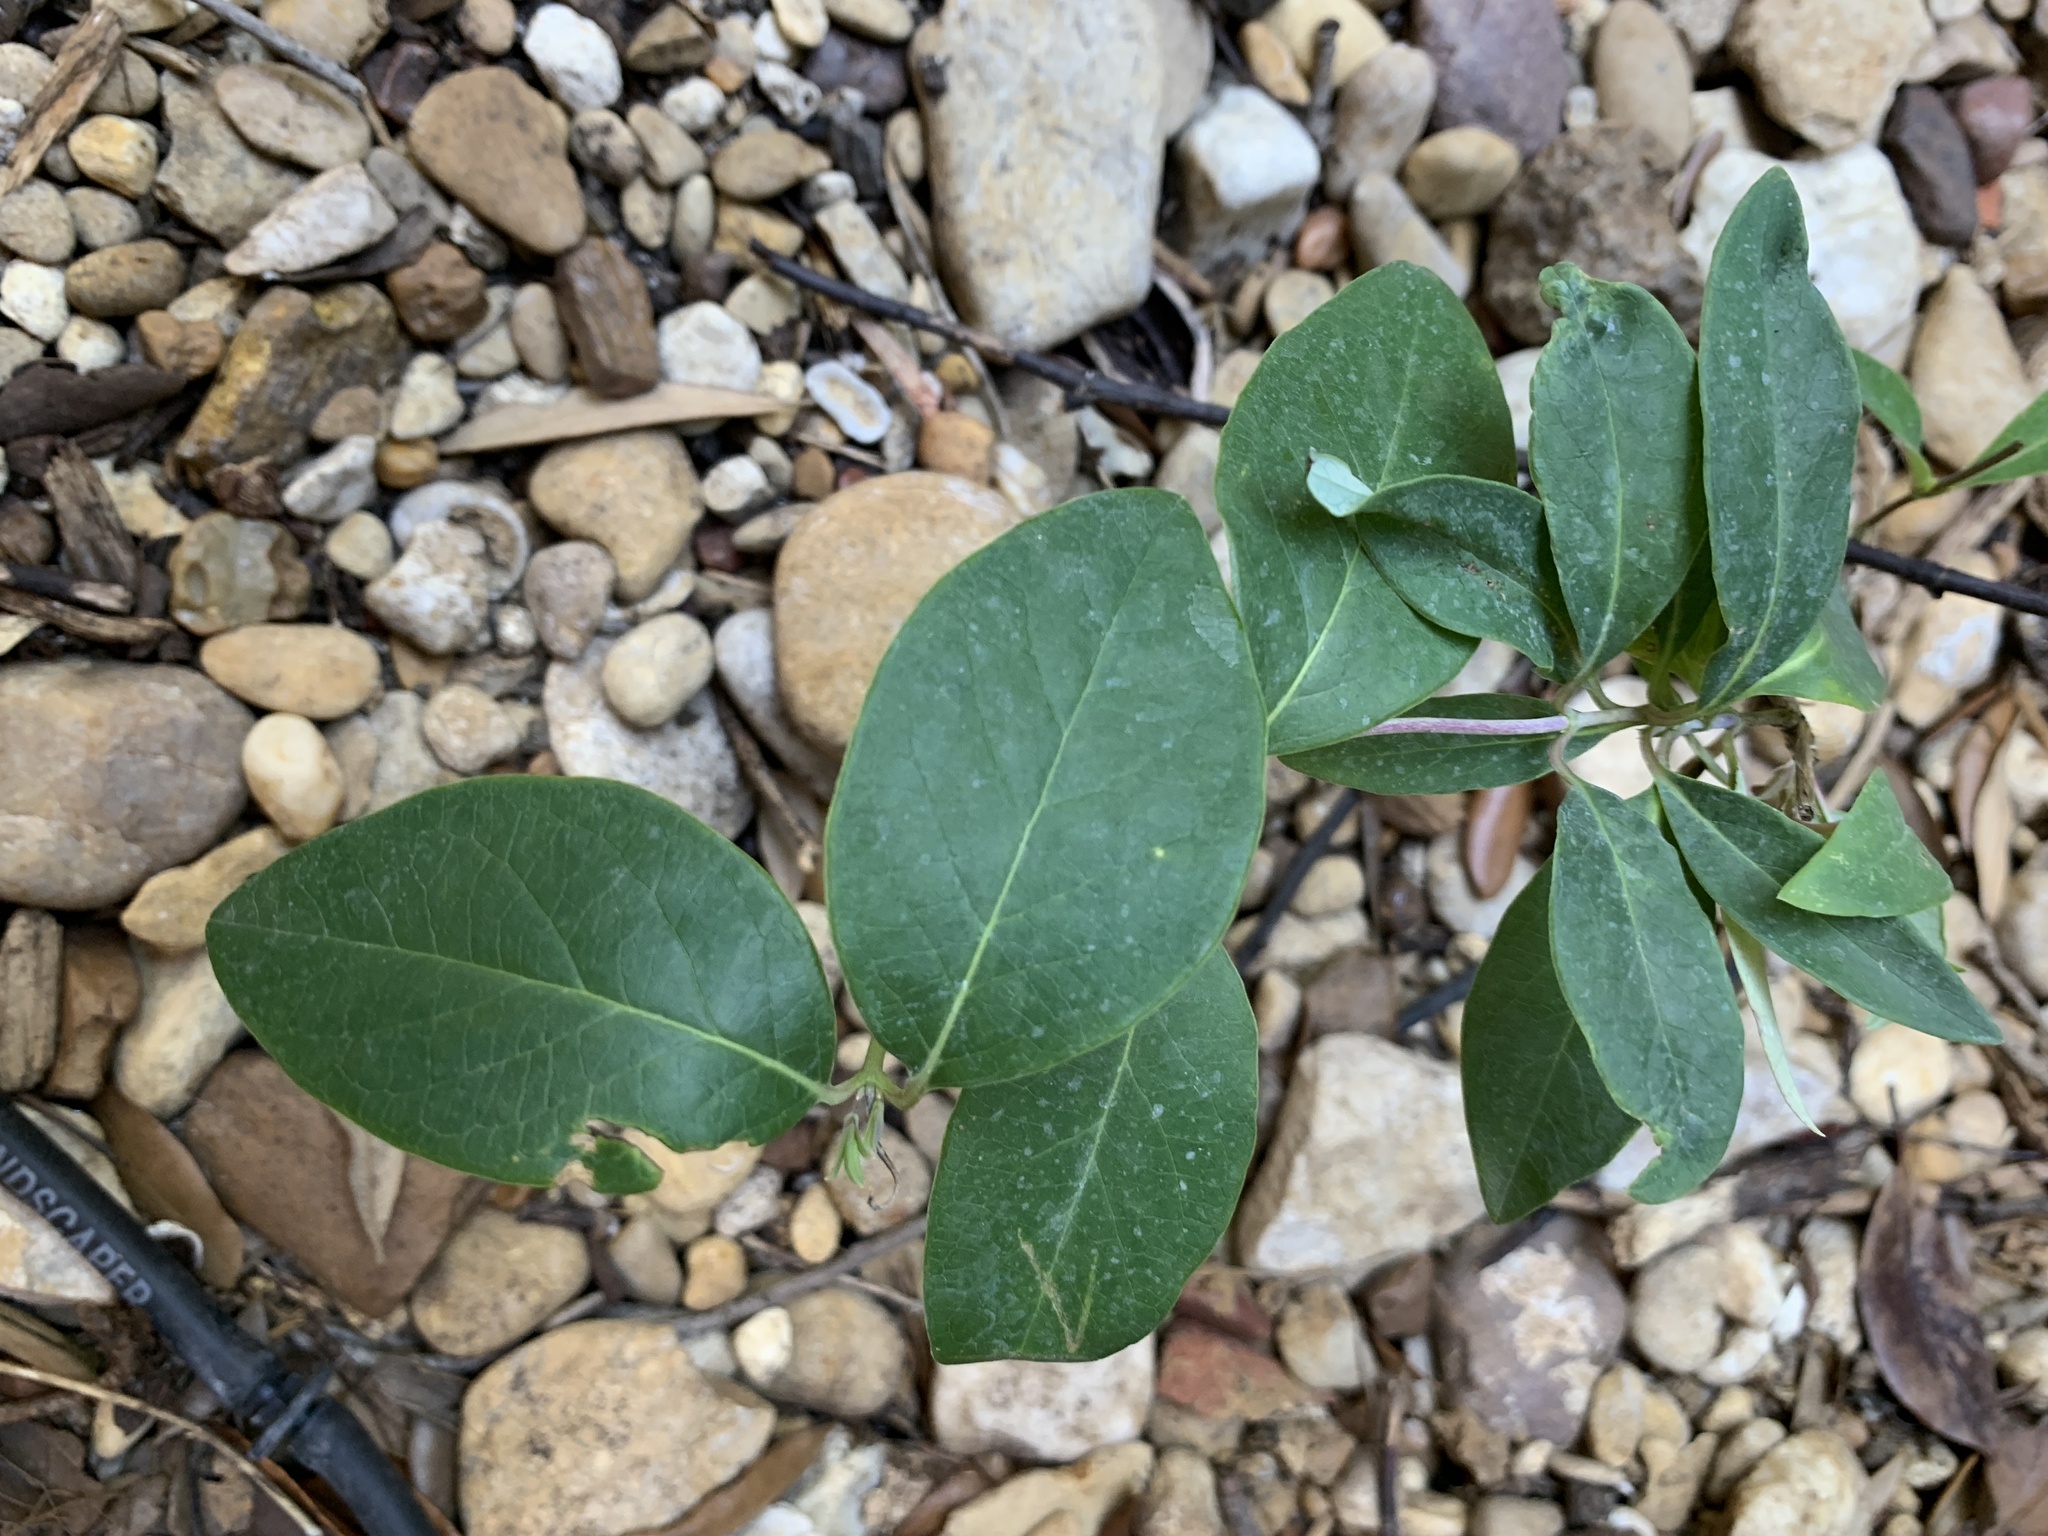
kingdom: Plantae
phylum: Tracheophyta
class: Magnoliopsida
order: Dipsacales
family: Caprifoliaceae
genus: Lonicera
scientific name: Lonicera sempervirens
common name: Coral honeysuckle
